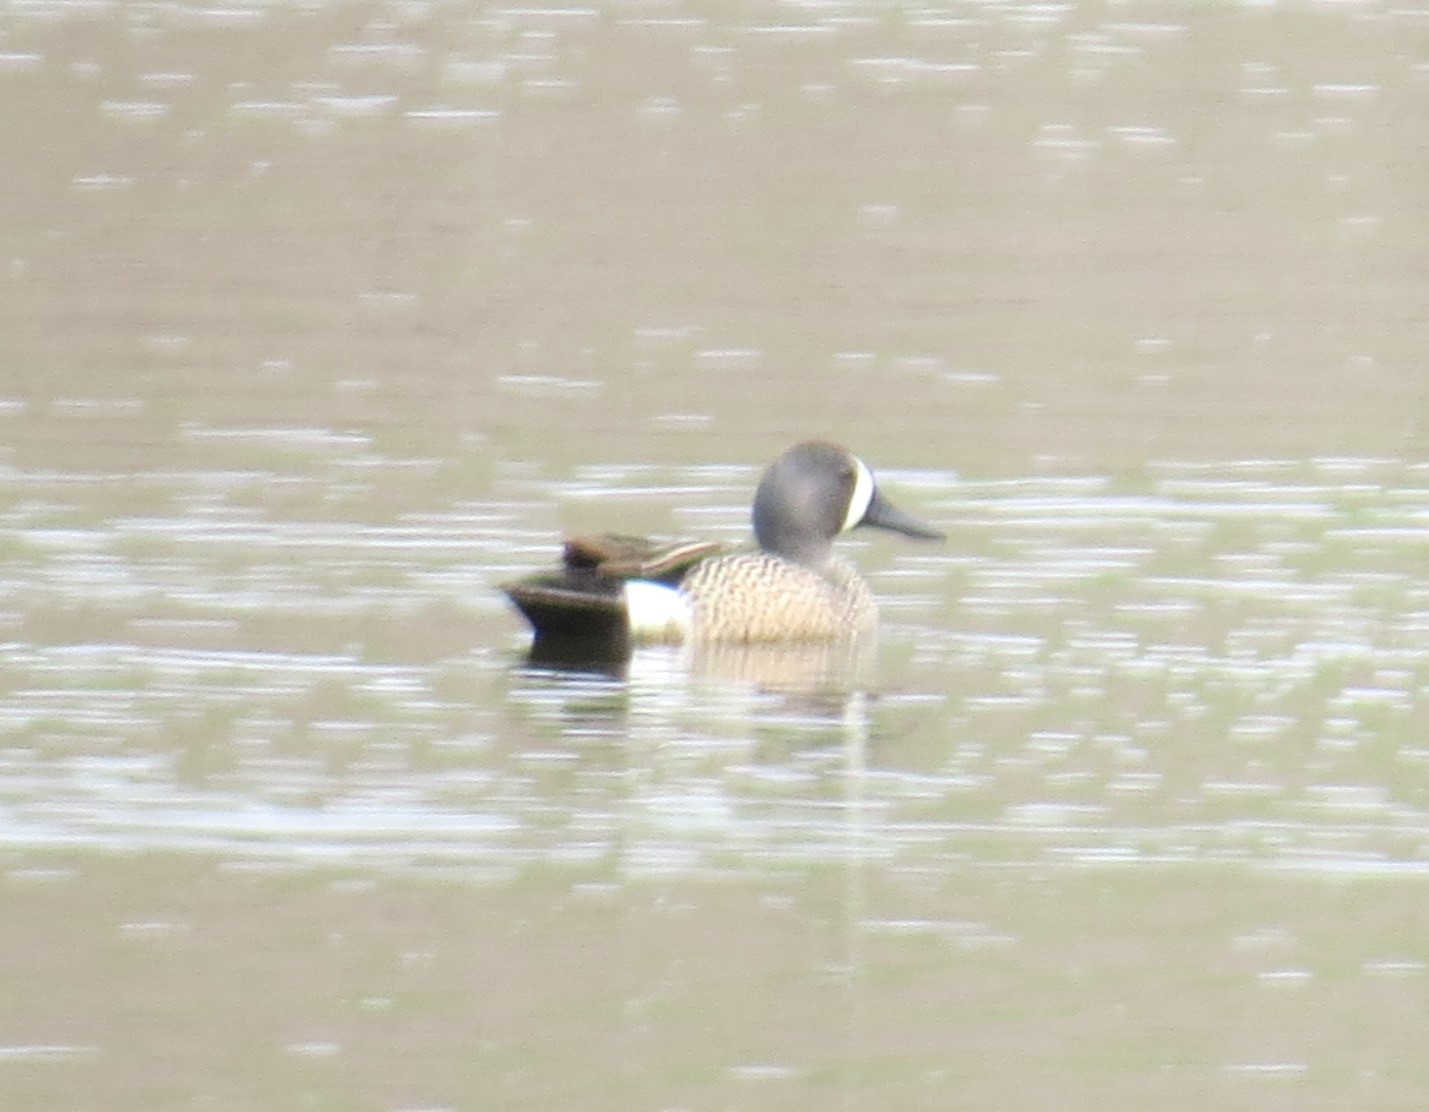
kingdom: Animalia
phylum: Chordata
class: Aves
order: Anseriformes
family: Anatidae
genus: Spatula
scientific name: Spatula discors
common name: Blue-winged teal
